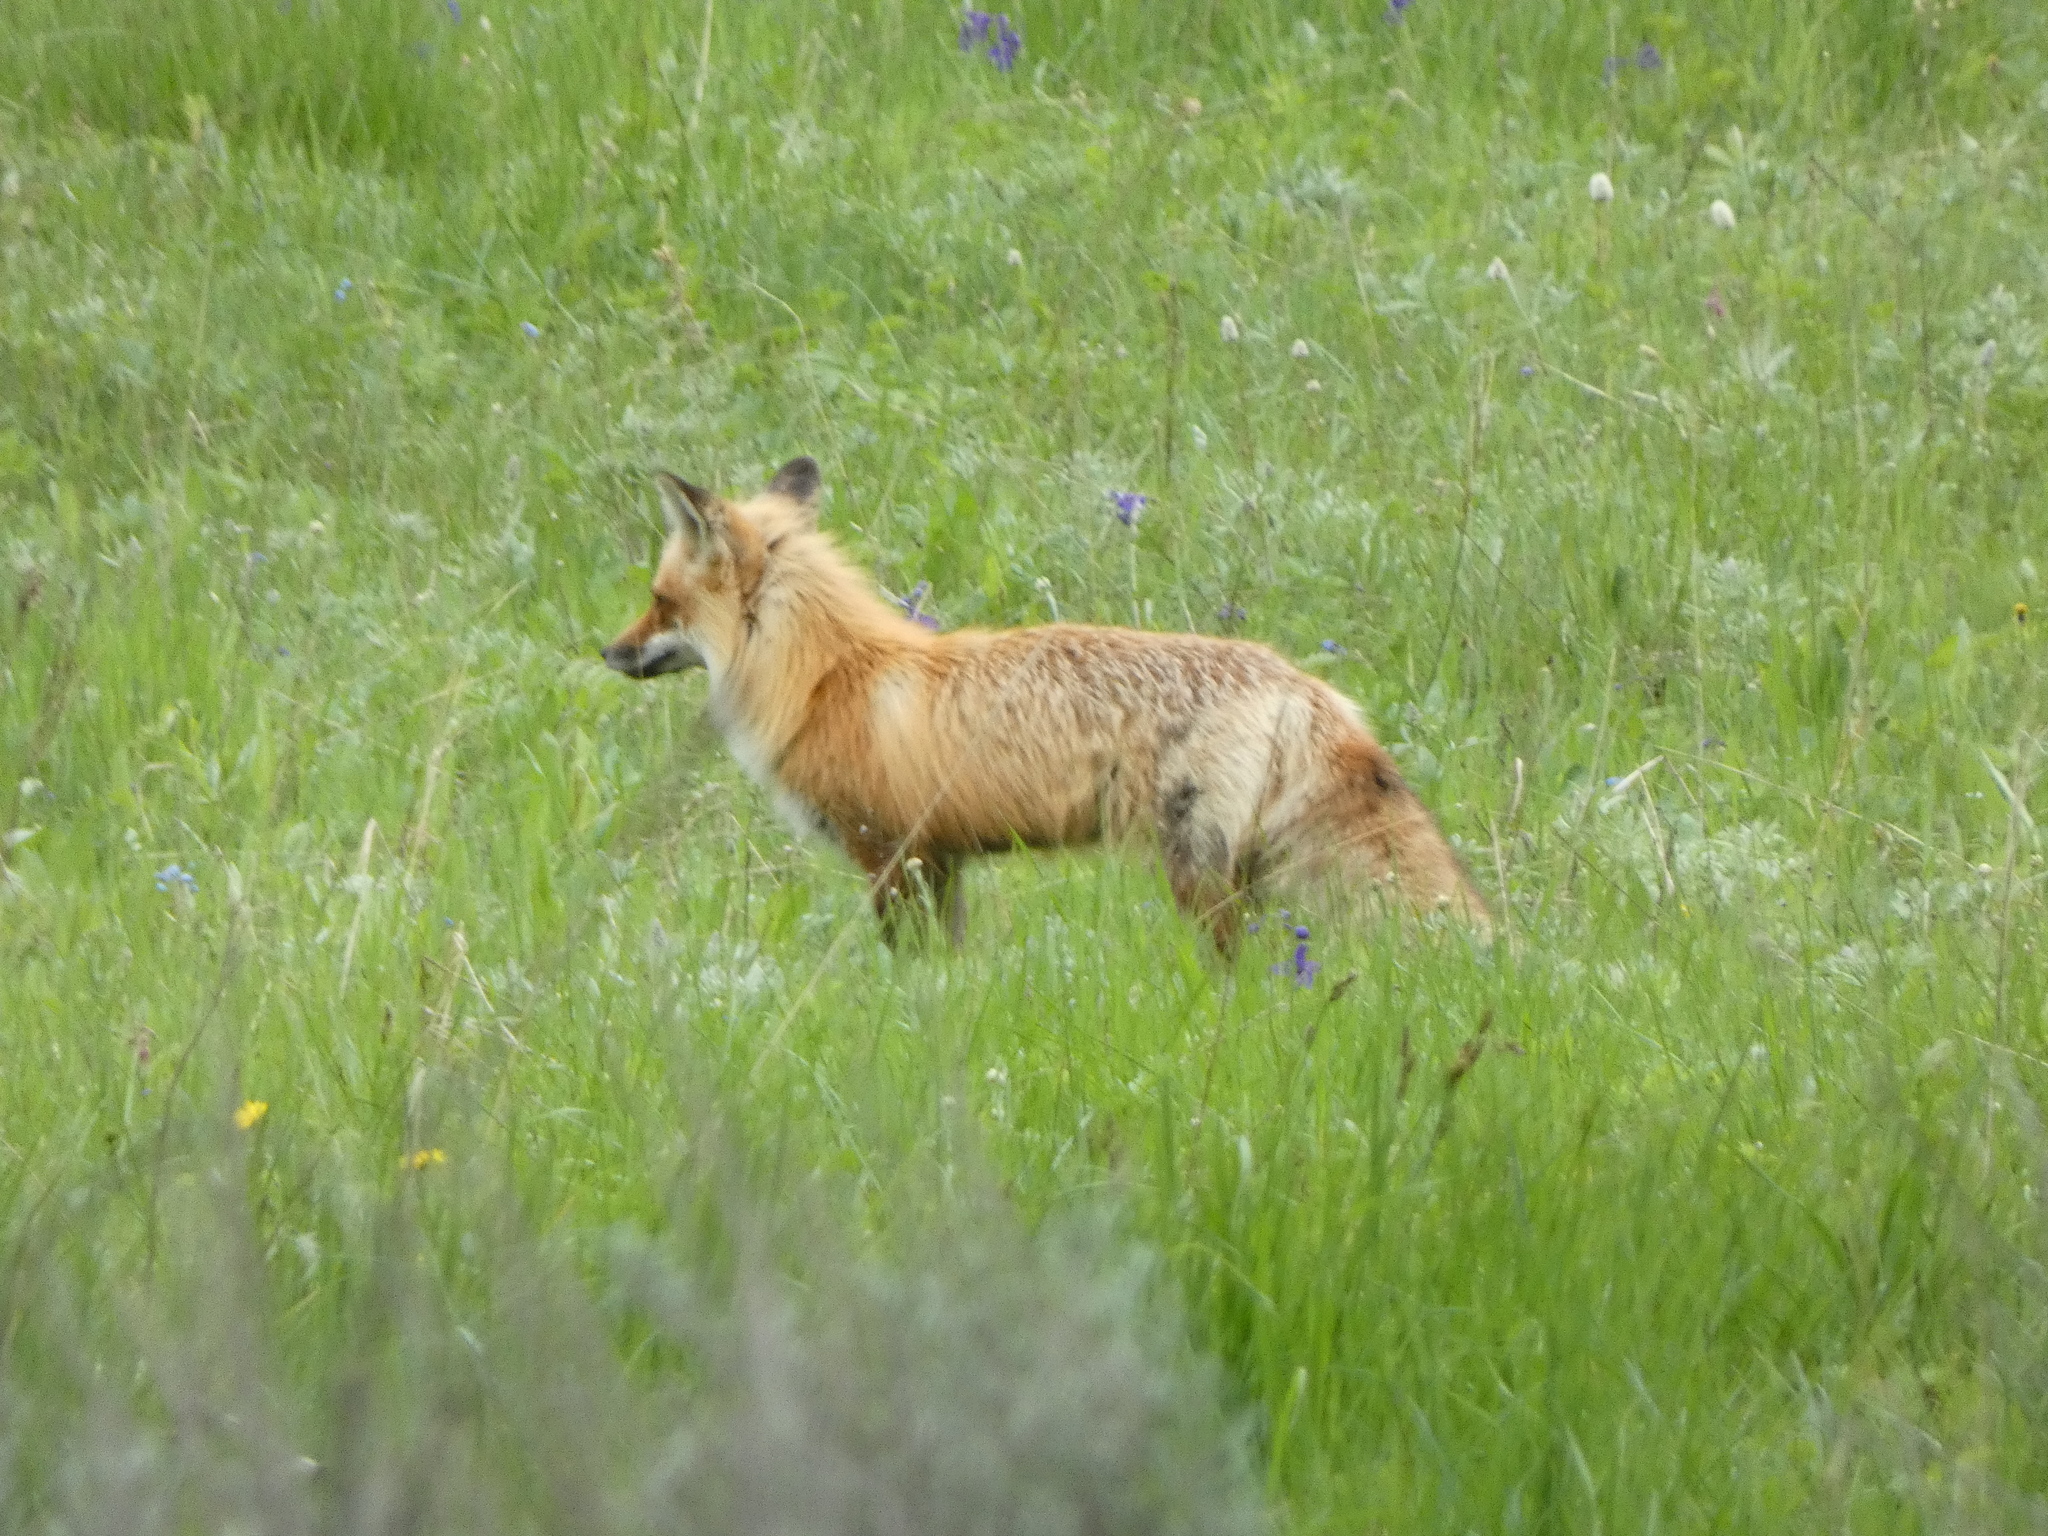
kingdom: Animalia
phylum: Chordata
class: Mammalia
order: Carnivora
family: Canidae
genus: Vulpes
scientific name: Vulpes vulpes
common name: Red fox
